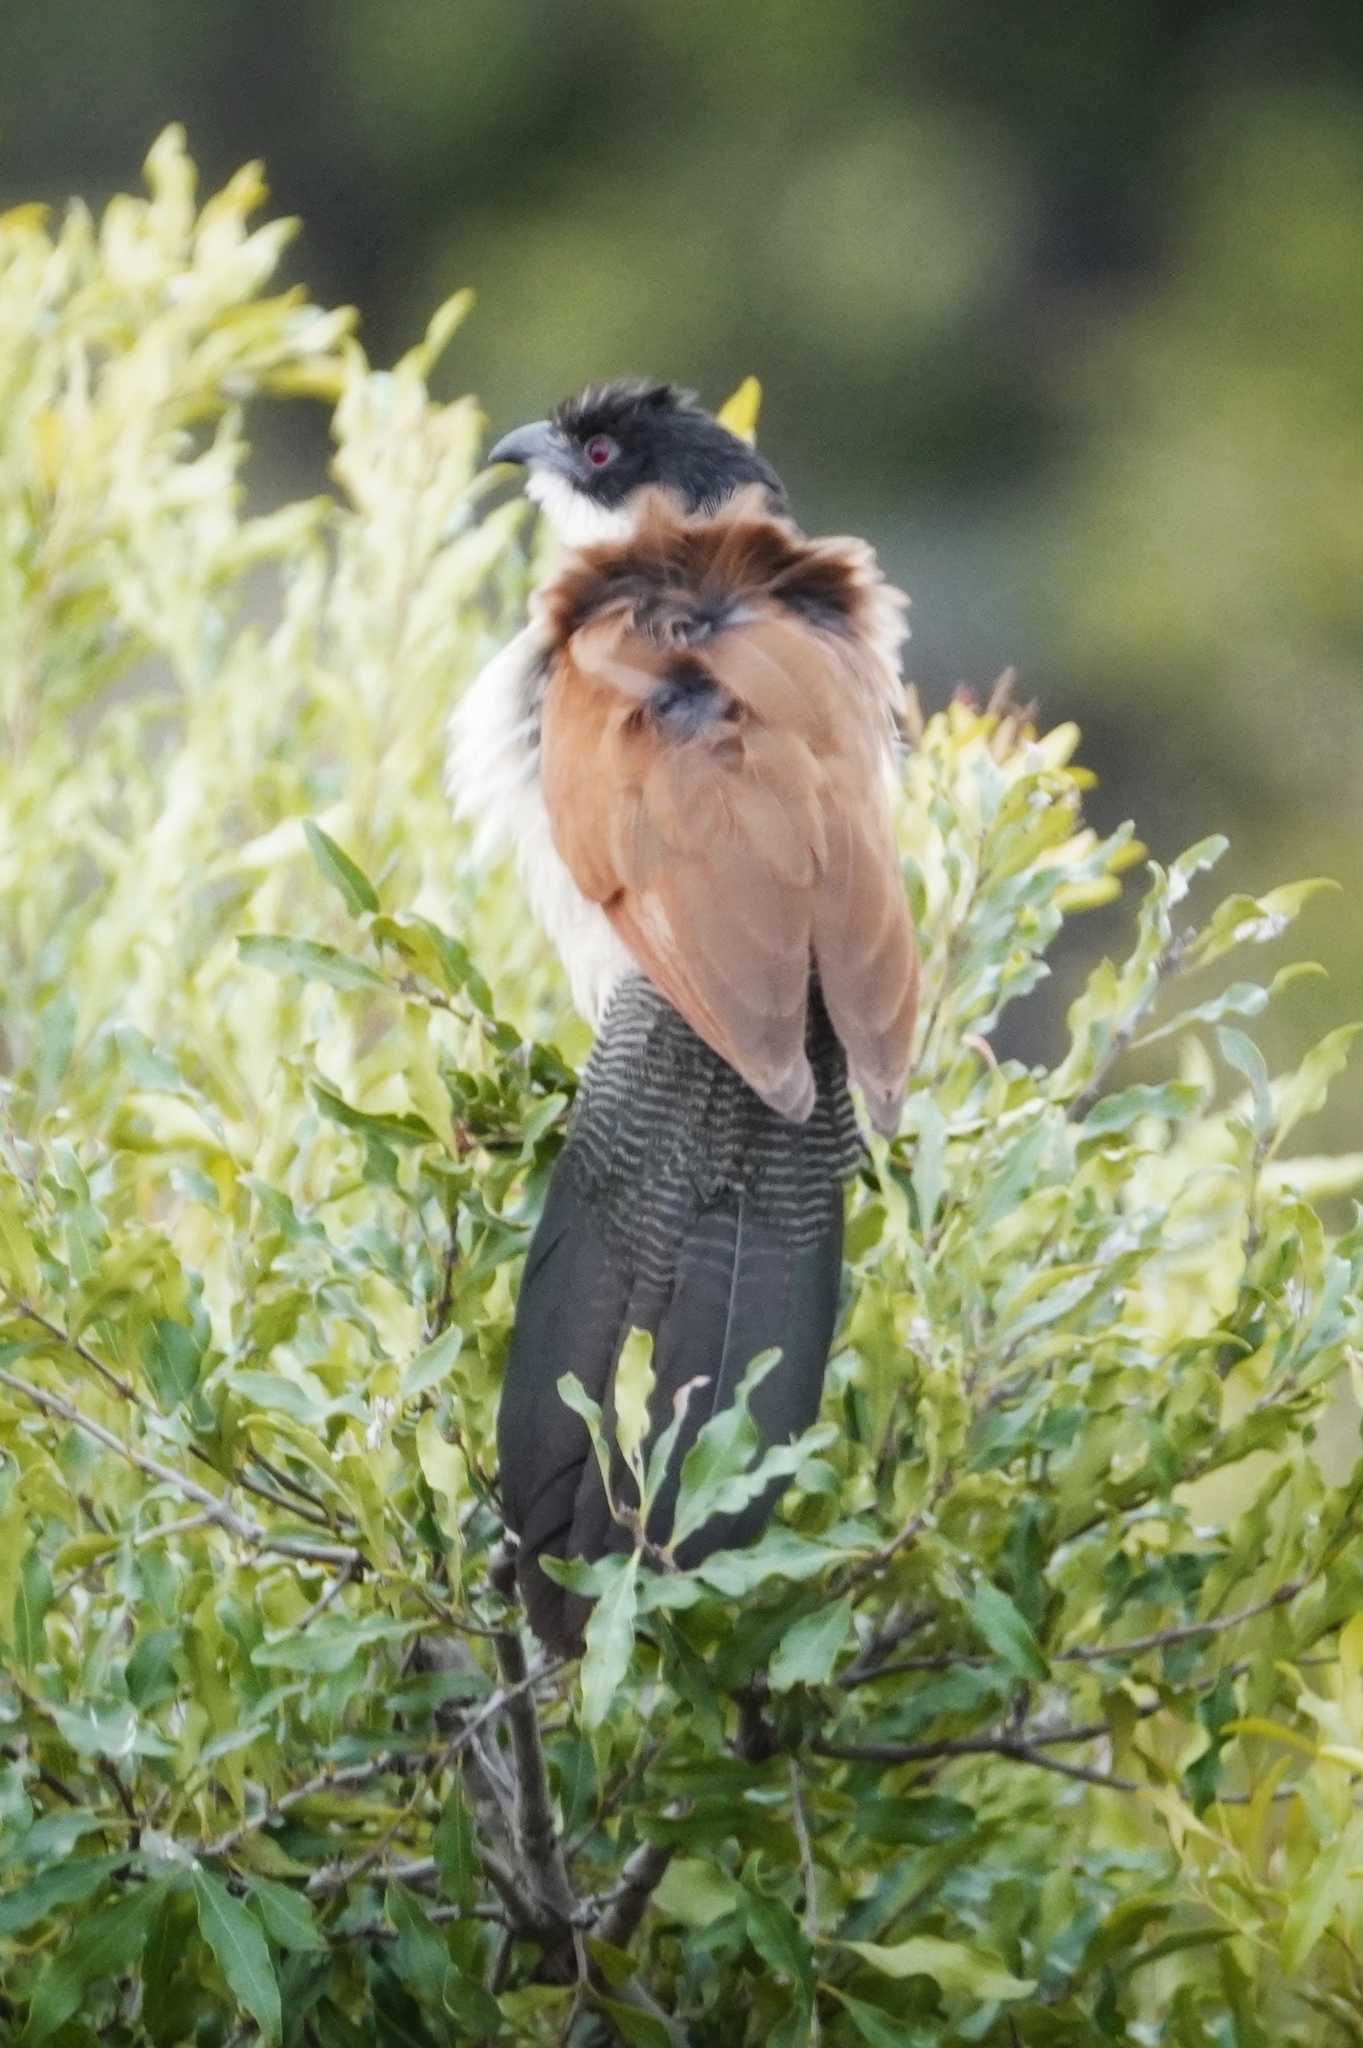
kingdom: Animalia
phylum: Chordata
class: Aves
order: Cuculiformes
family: Cuculidae
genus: Centropus
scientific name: Centropus superciliosus
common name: White-browed coucal
